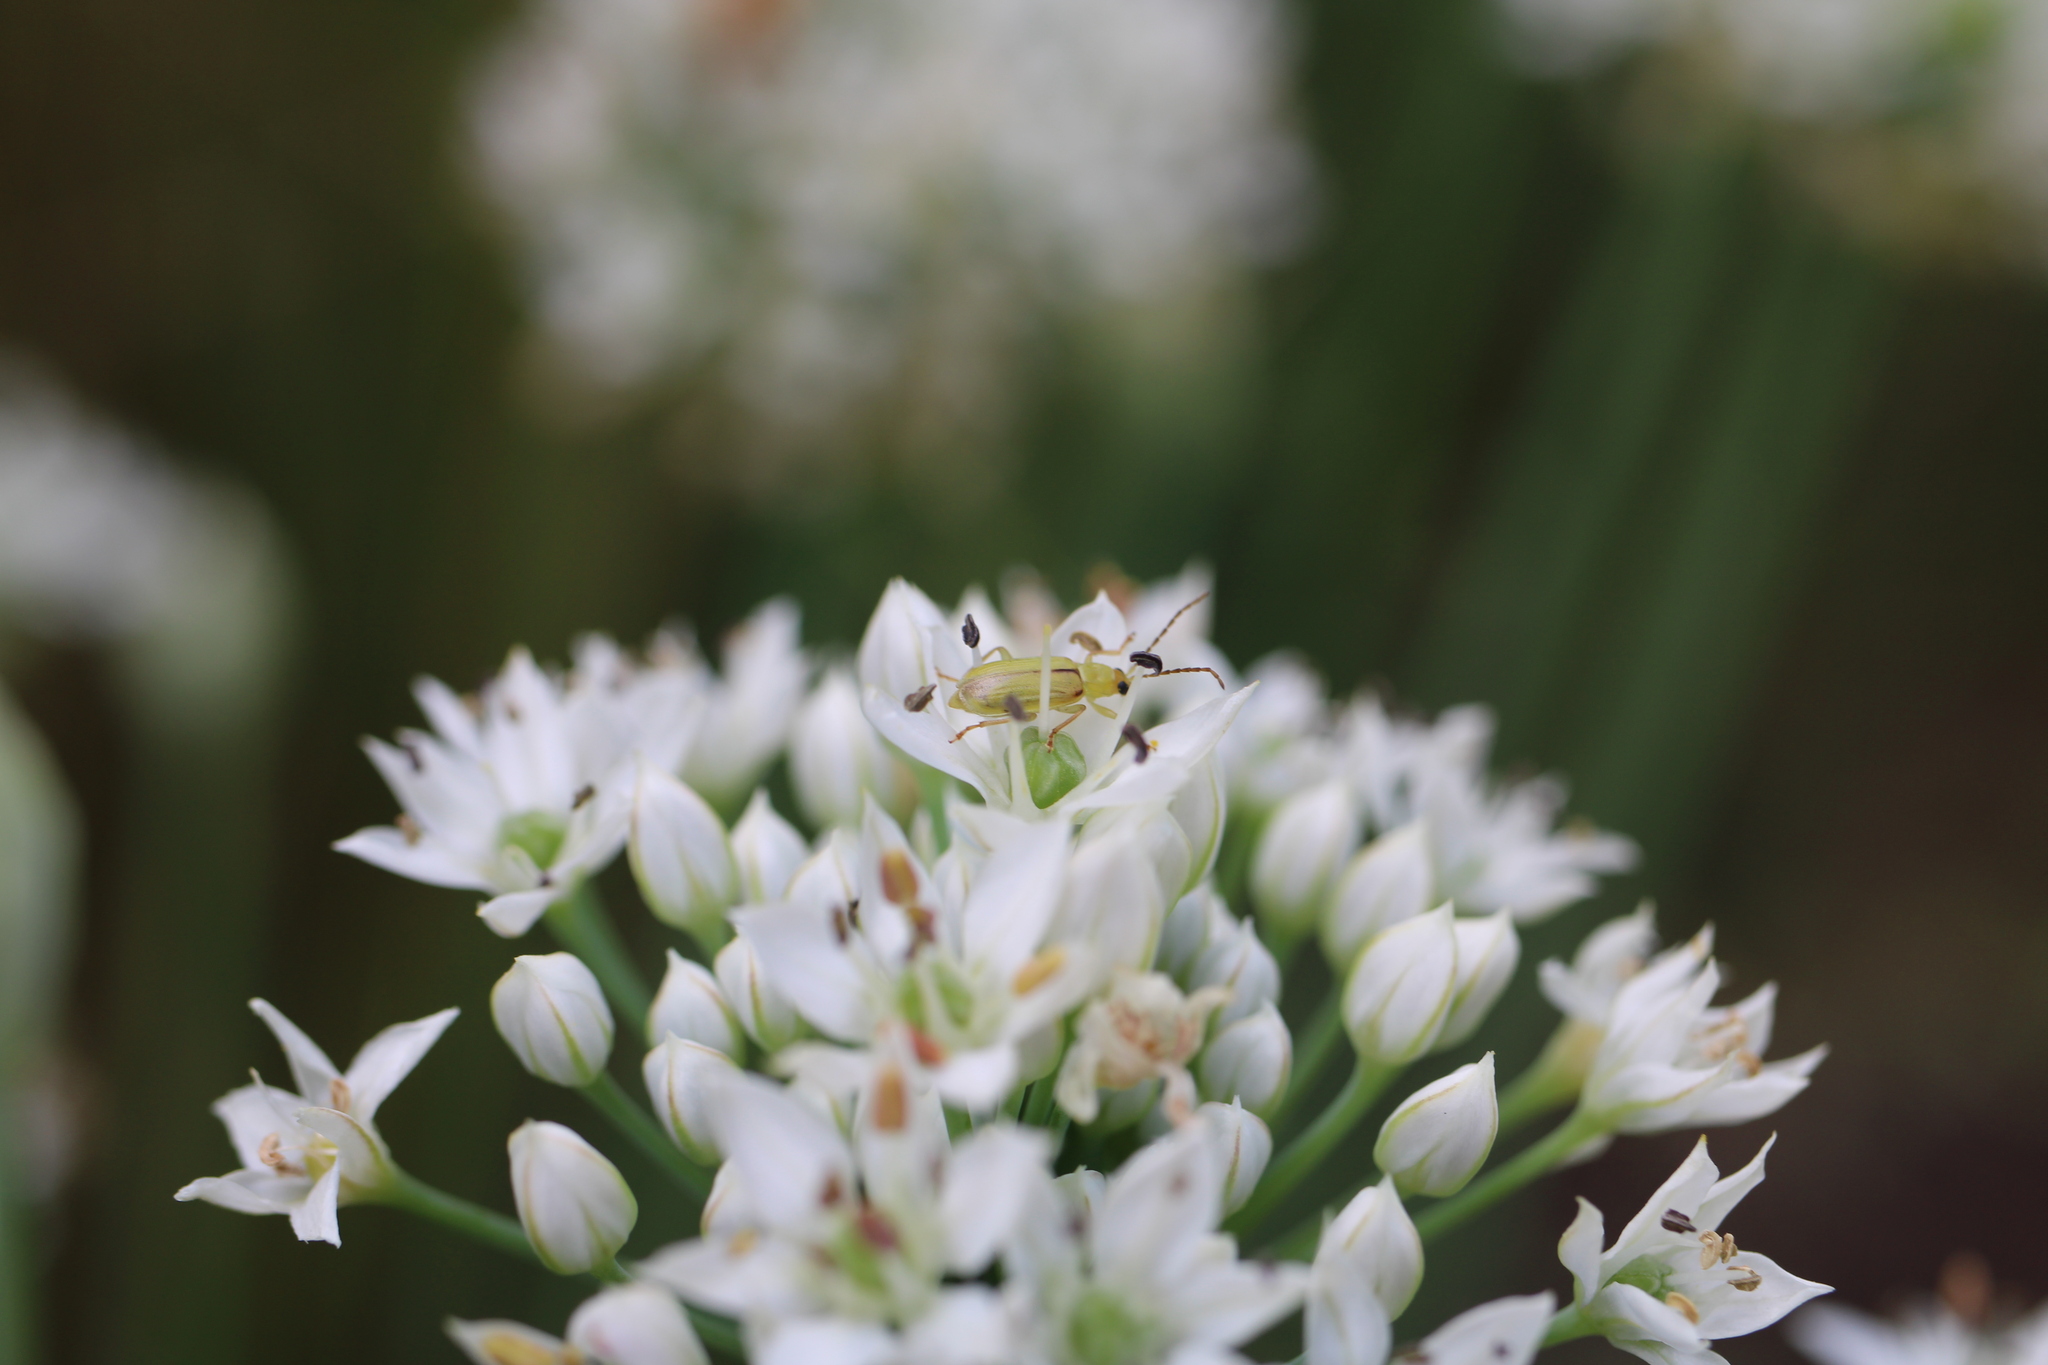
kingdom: Animalia
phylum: Arthropoda
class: Insecta
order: Coleoptera
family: Chrysomelidae
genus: Diabrotica
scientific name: Diabrotica barberi
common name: Northern corn rootworm
